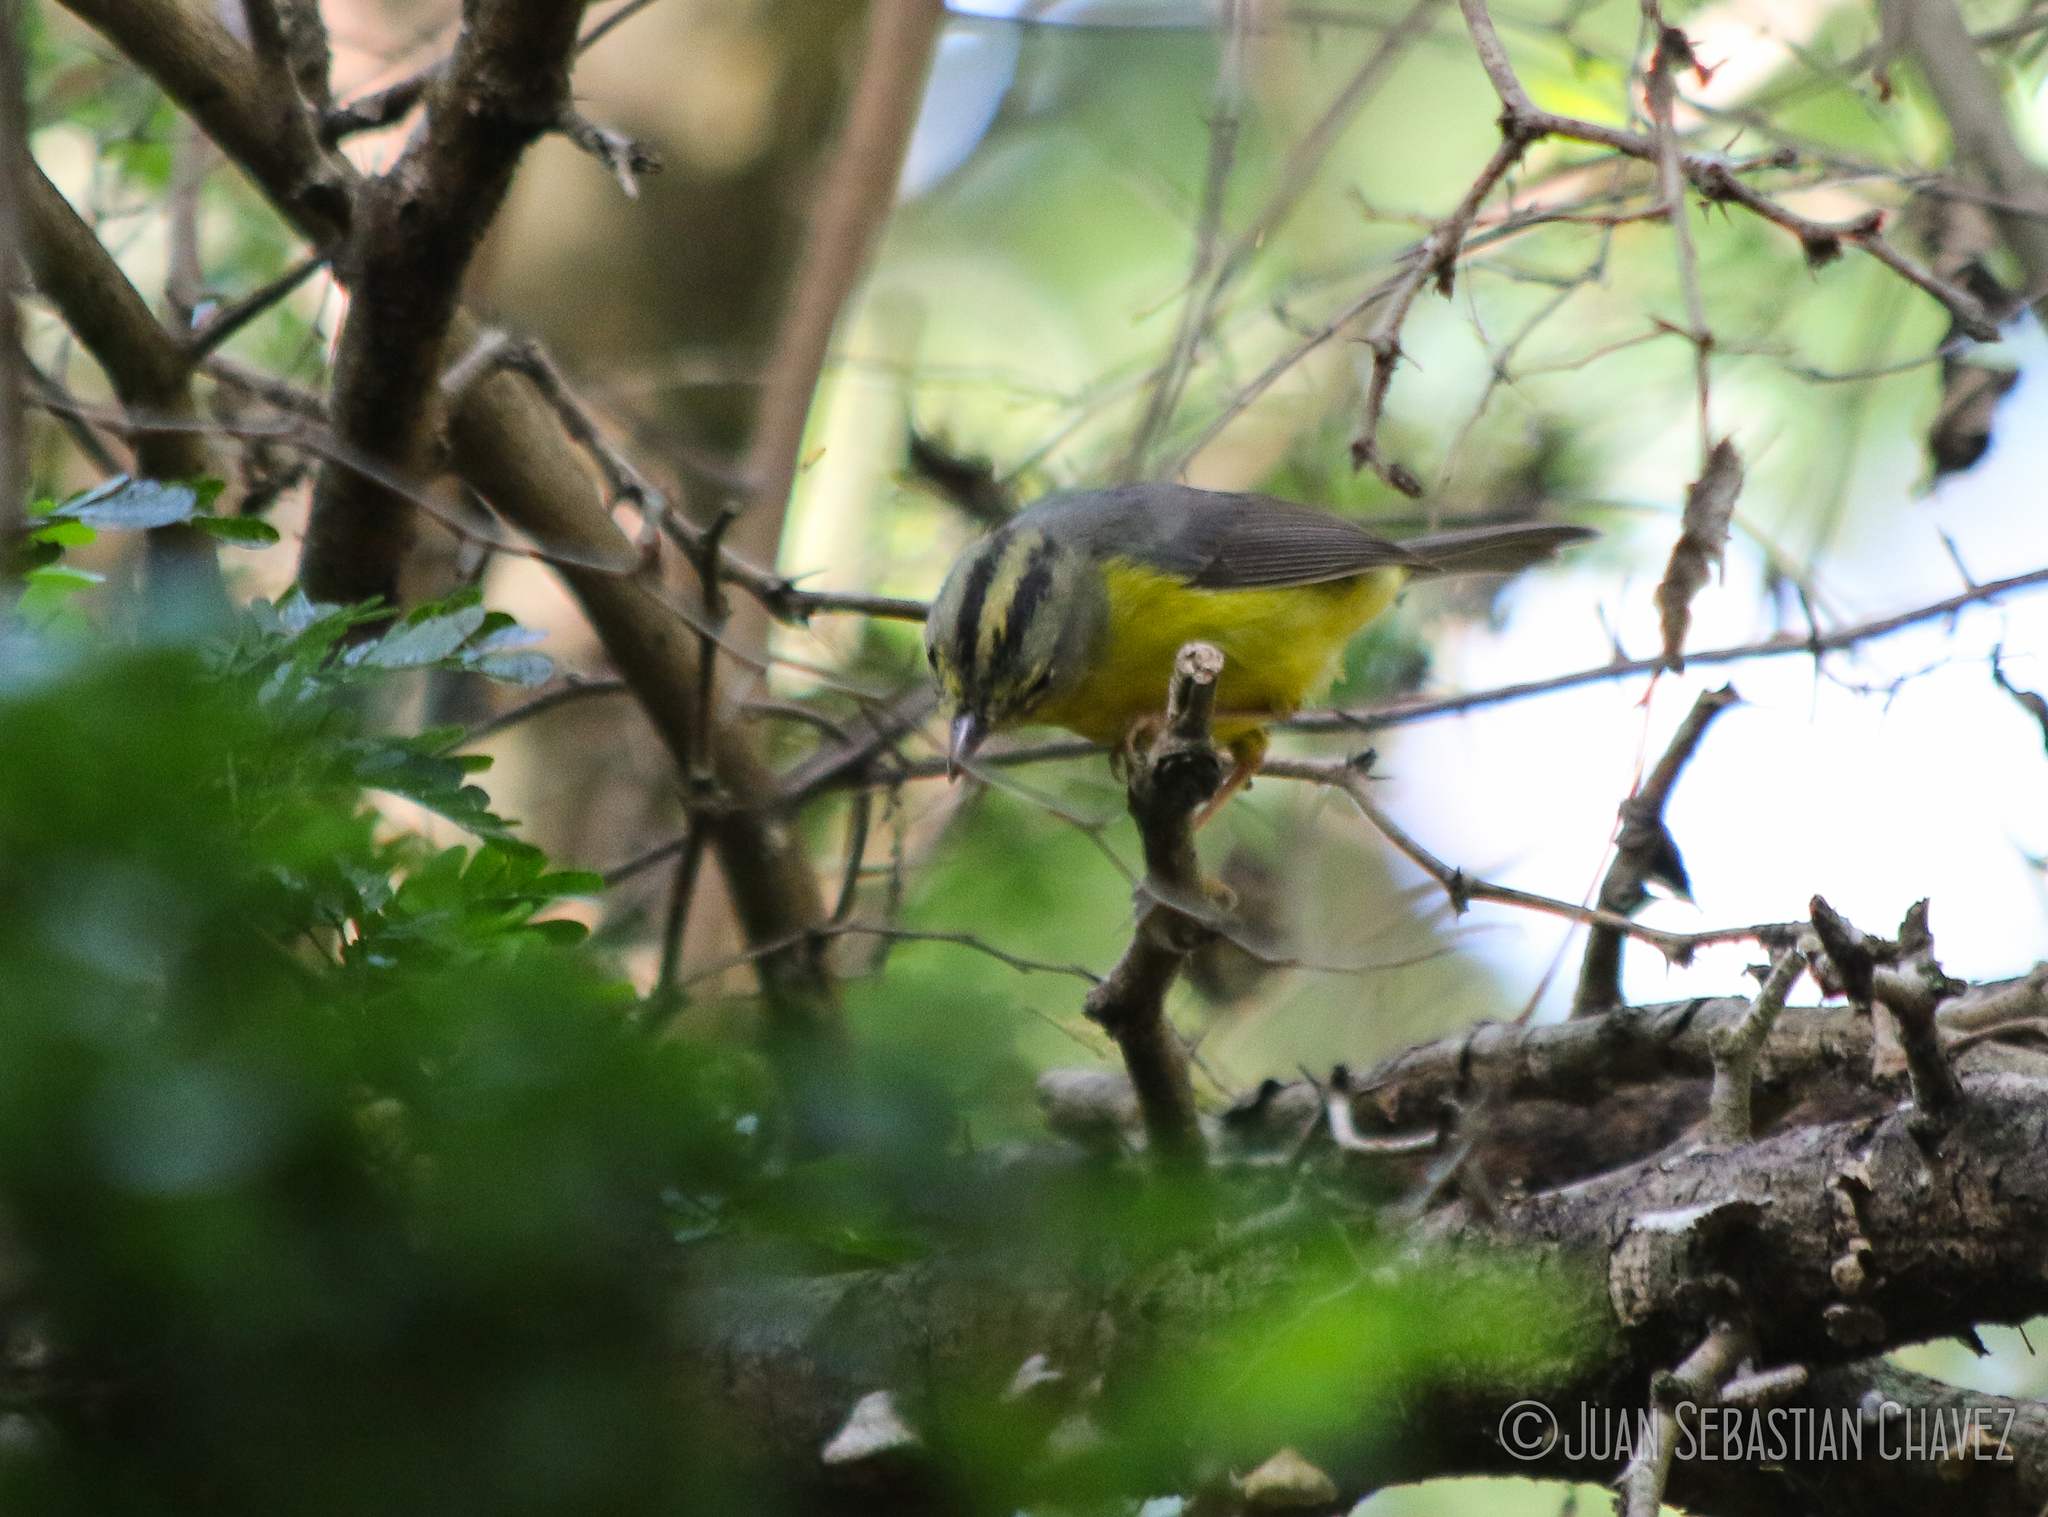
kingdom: Animalia
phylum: Chordata
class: Aves
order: Passeriformes
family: Parulidae
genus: Basileuterus
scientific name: Basileuterus culicivorus
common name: Golden-crowned warbler
